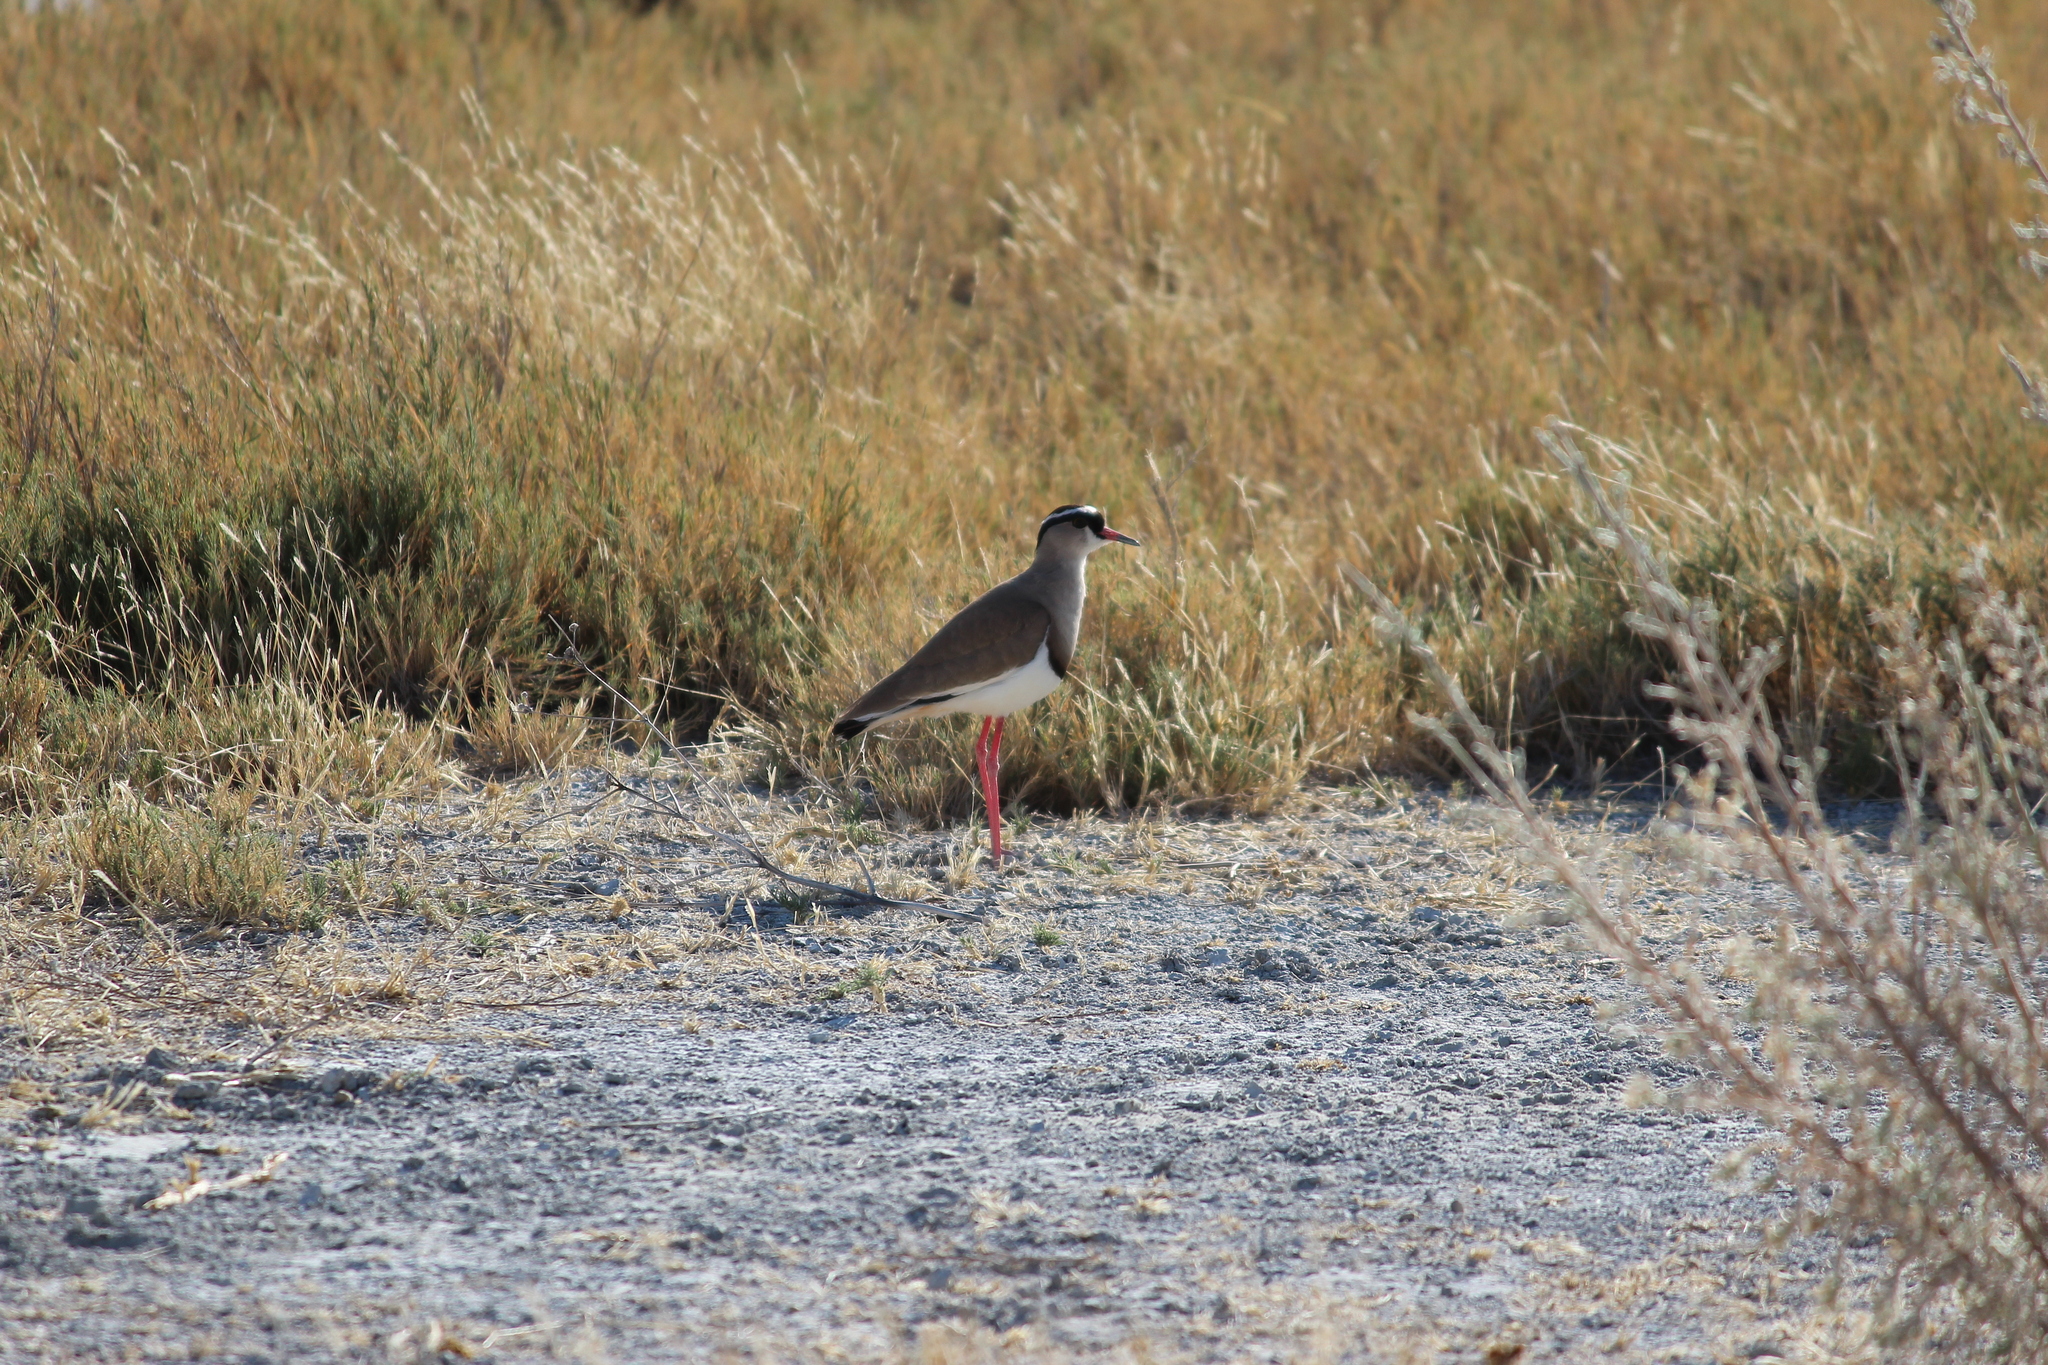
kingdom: Animalia
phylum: Chordata
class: Aves
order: Charadriiformes
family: Charadriidae
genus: Vanellus
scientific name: Vanellus coronatus
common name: Crowned lapwing
